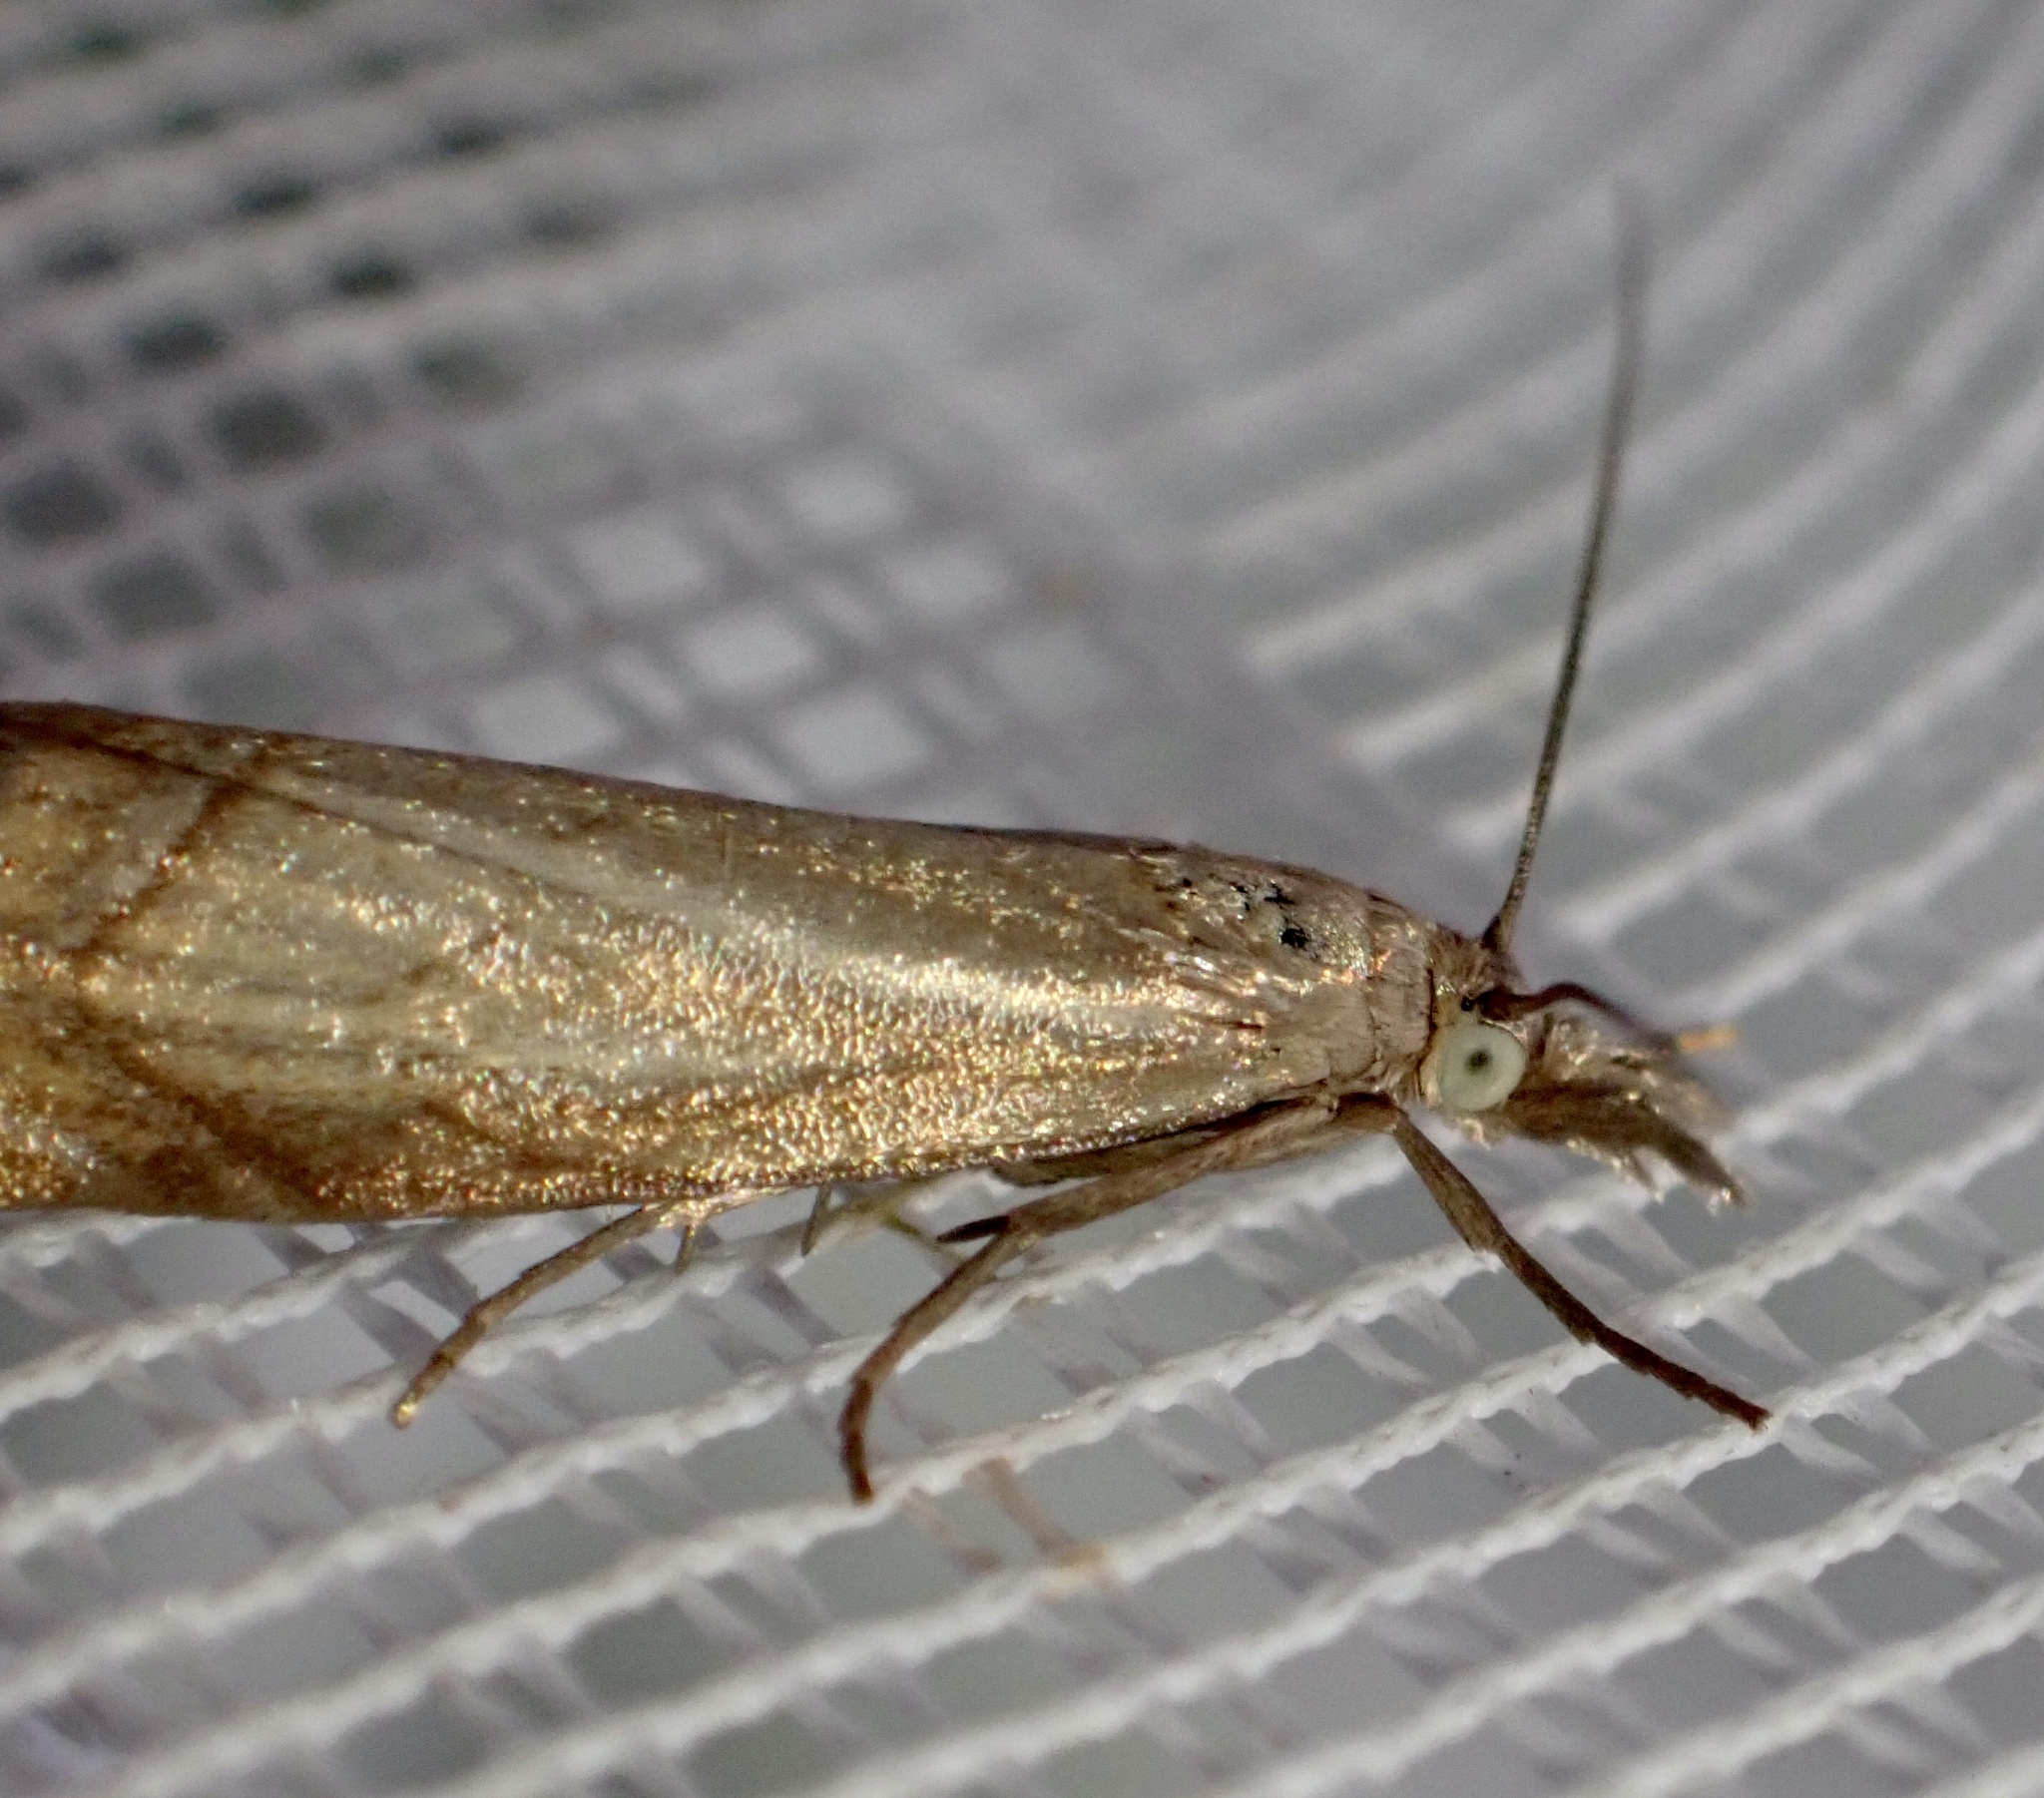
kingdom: Animalia
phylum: Arthropoda
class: Insecta
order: Lepidoptera
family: Crambidae
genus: Chrysoteuchia
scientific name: Chrysoteuchia culmella
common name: Garden grass-veneer
